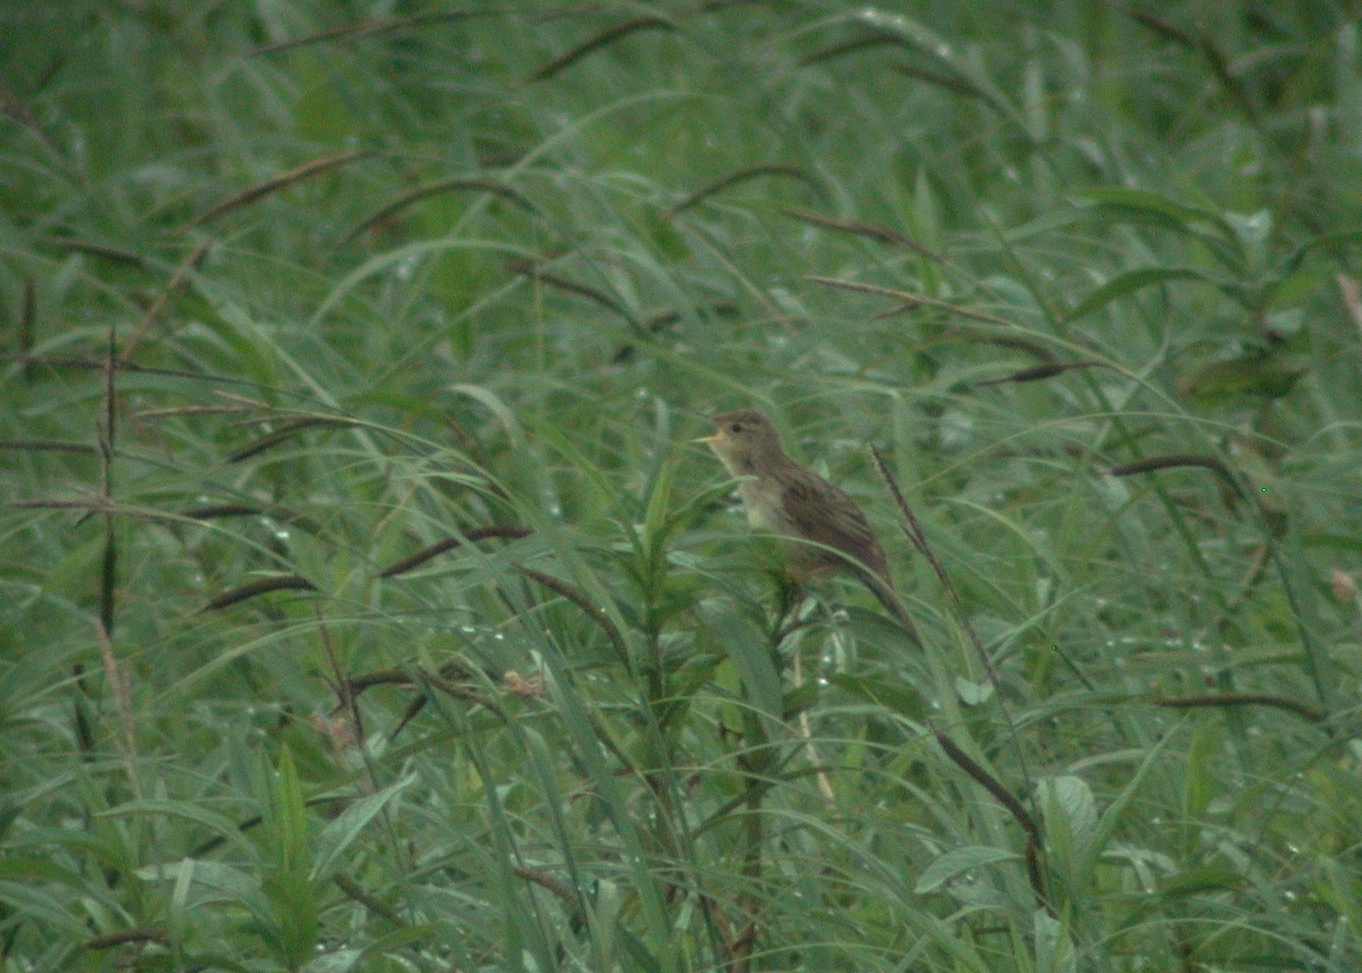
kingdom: Animalia
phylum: Chordata
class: Aves
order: Passeriformes
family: Locustellidae
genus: Locustella
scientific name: Locustella naevia
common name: Common grasshopper warbler
